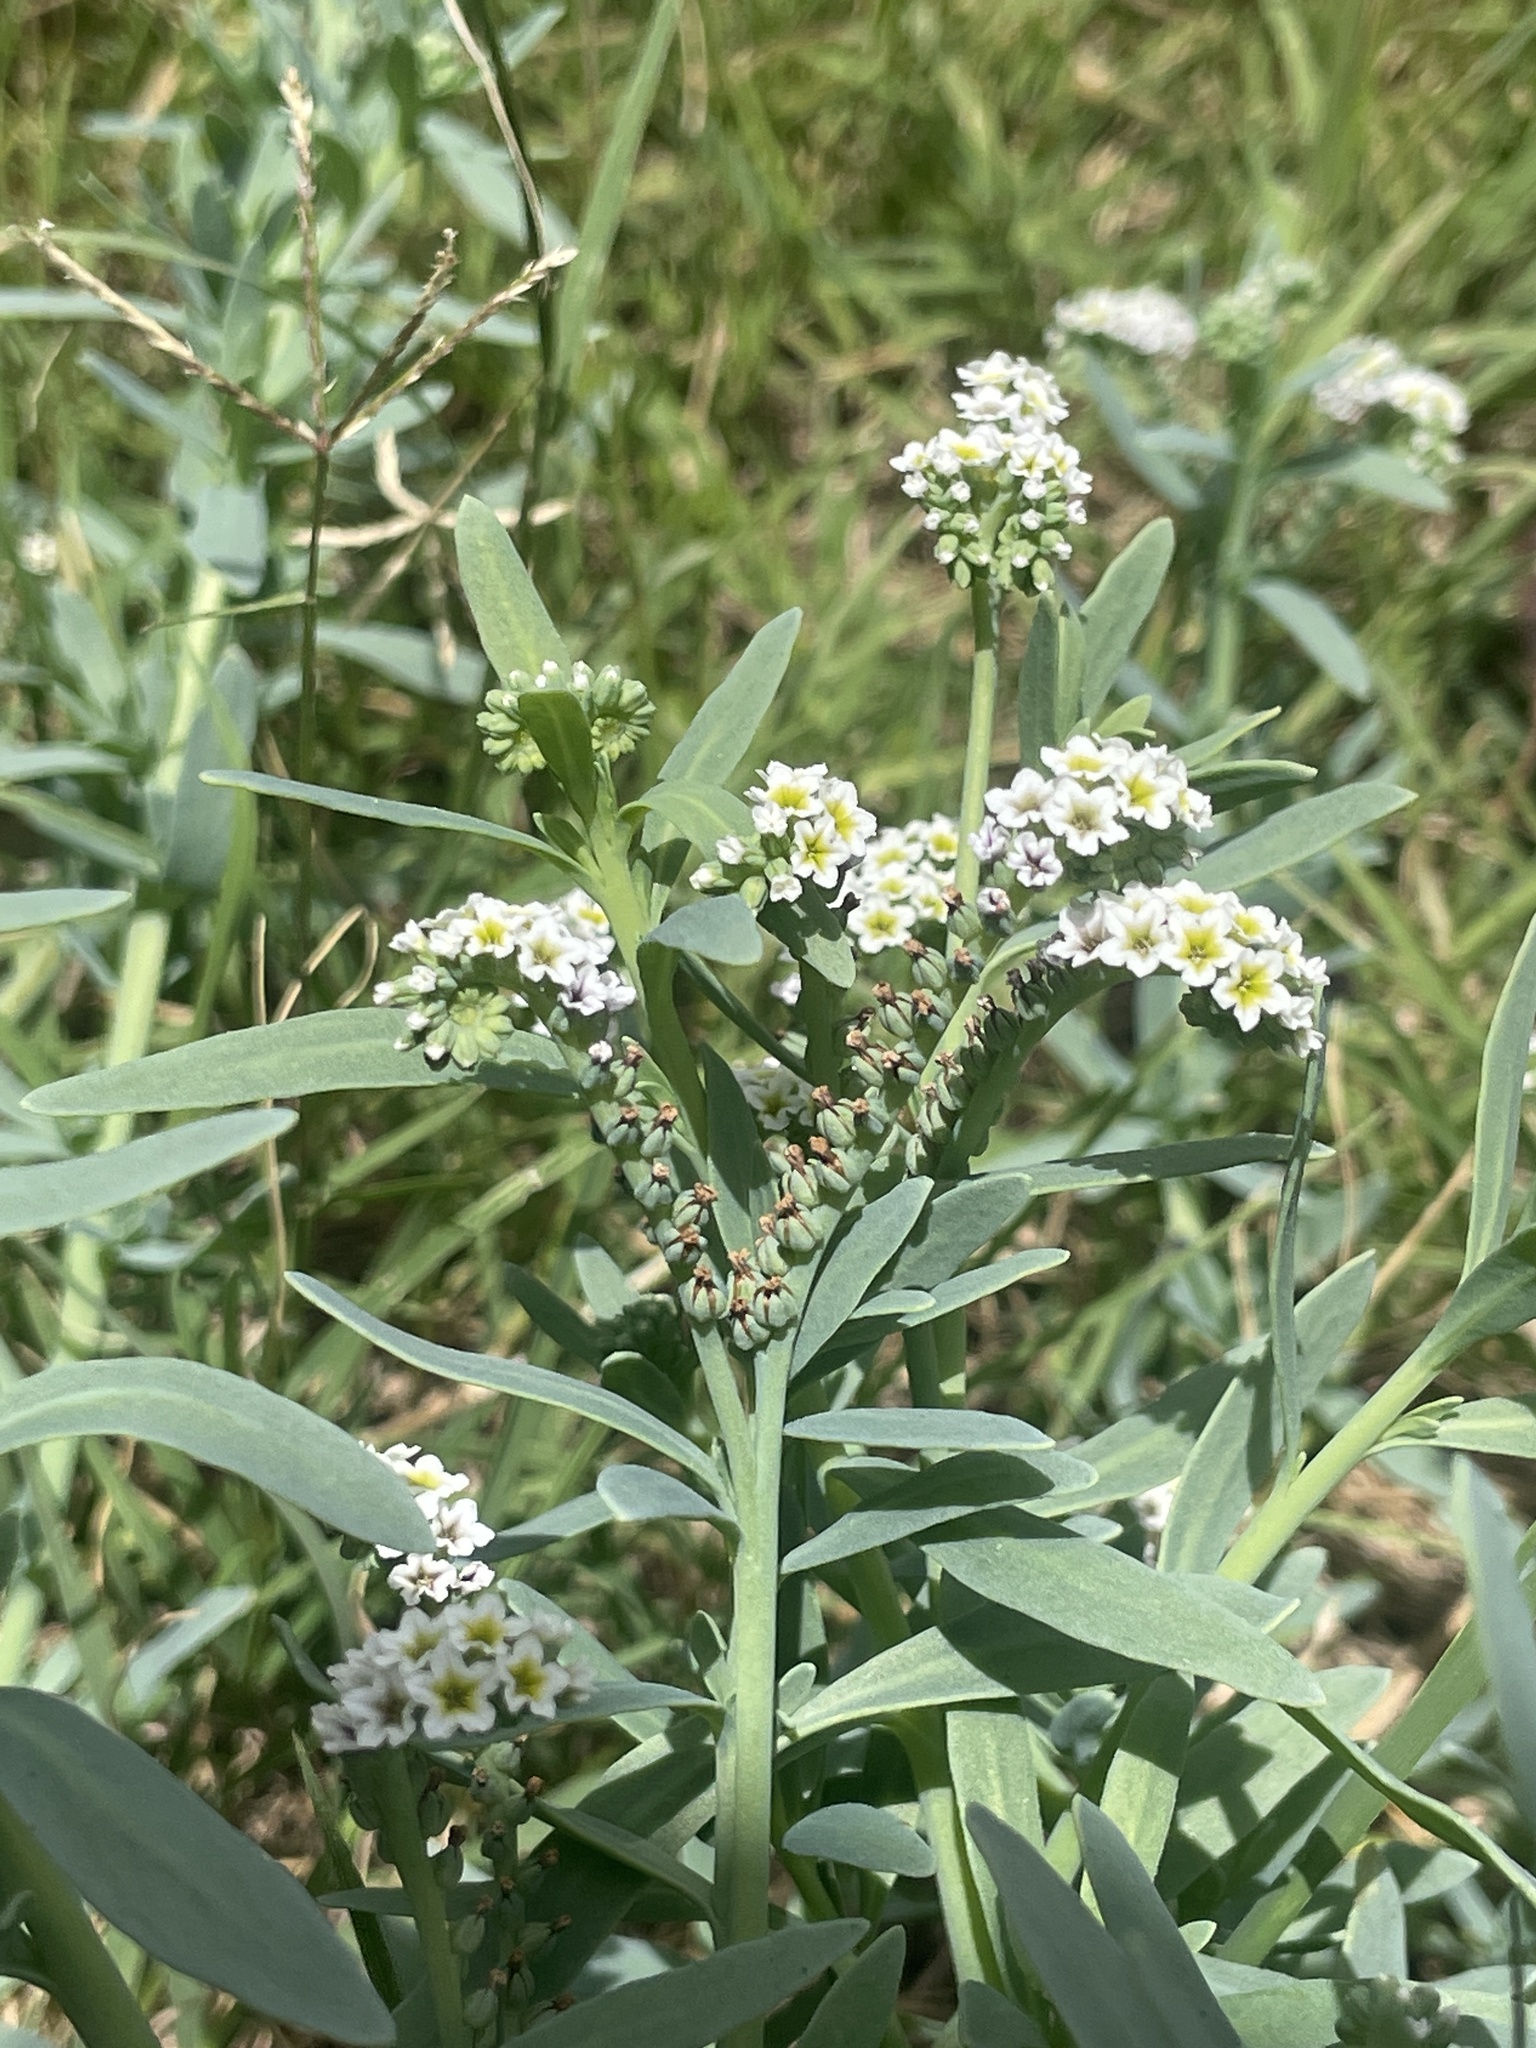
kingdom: Plantae
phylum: Tracheophyta
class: Magnoliopsida
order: Boraginales
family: Heliotropiaceae
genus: Heliotropium
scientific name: Heliotropium curassavicum
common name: Seaside heliotrope
